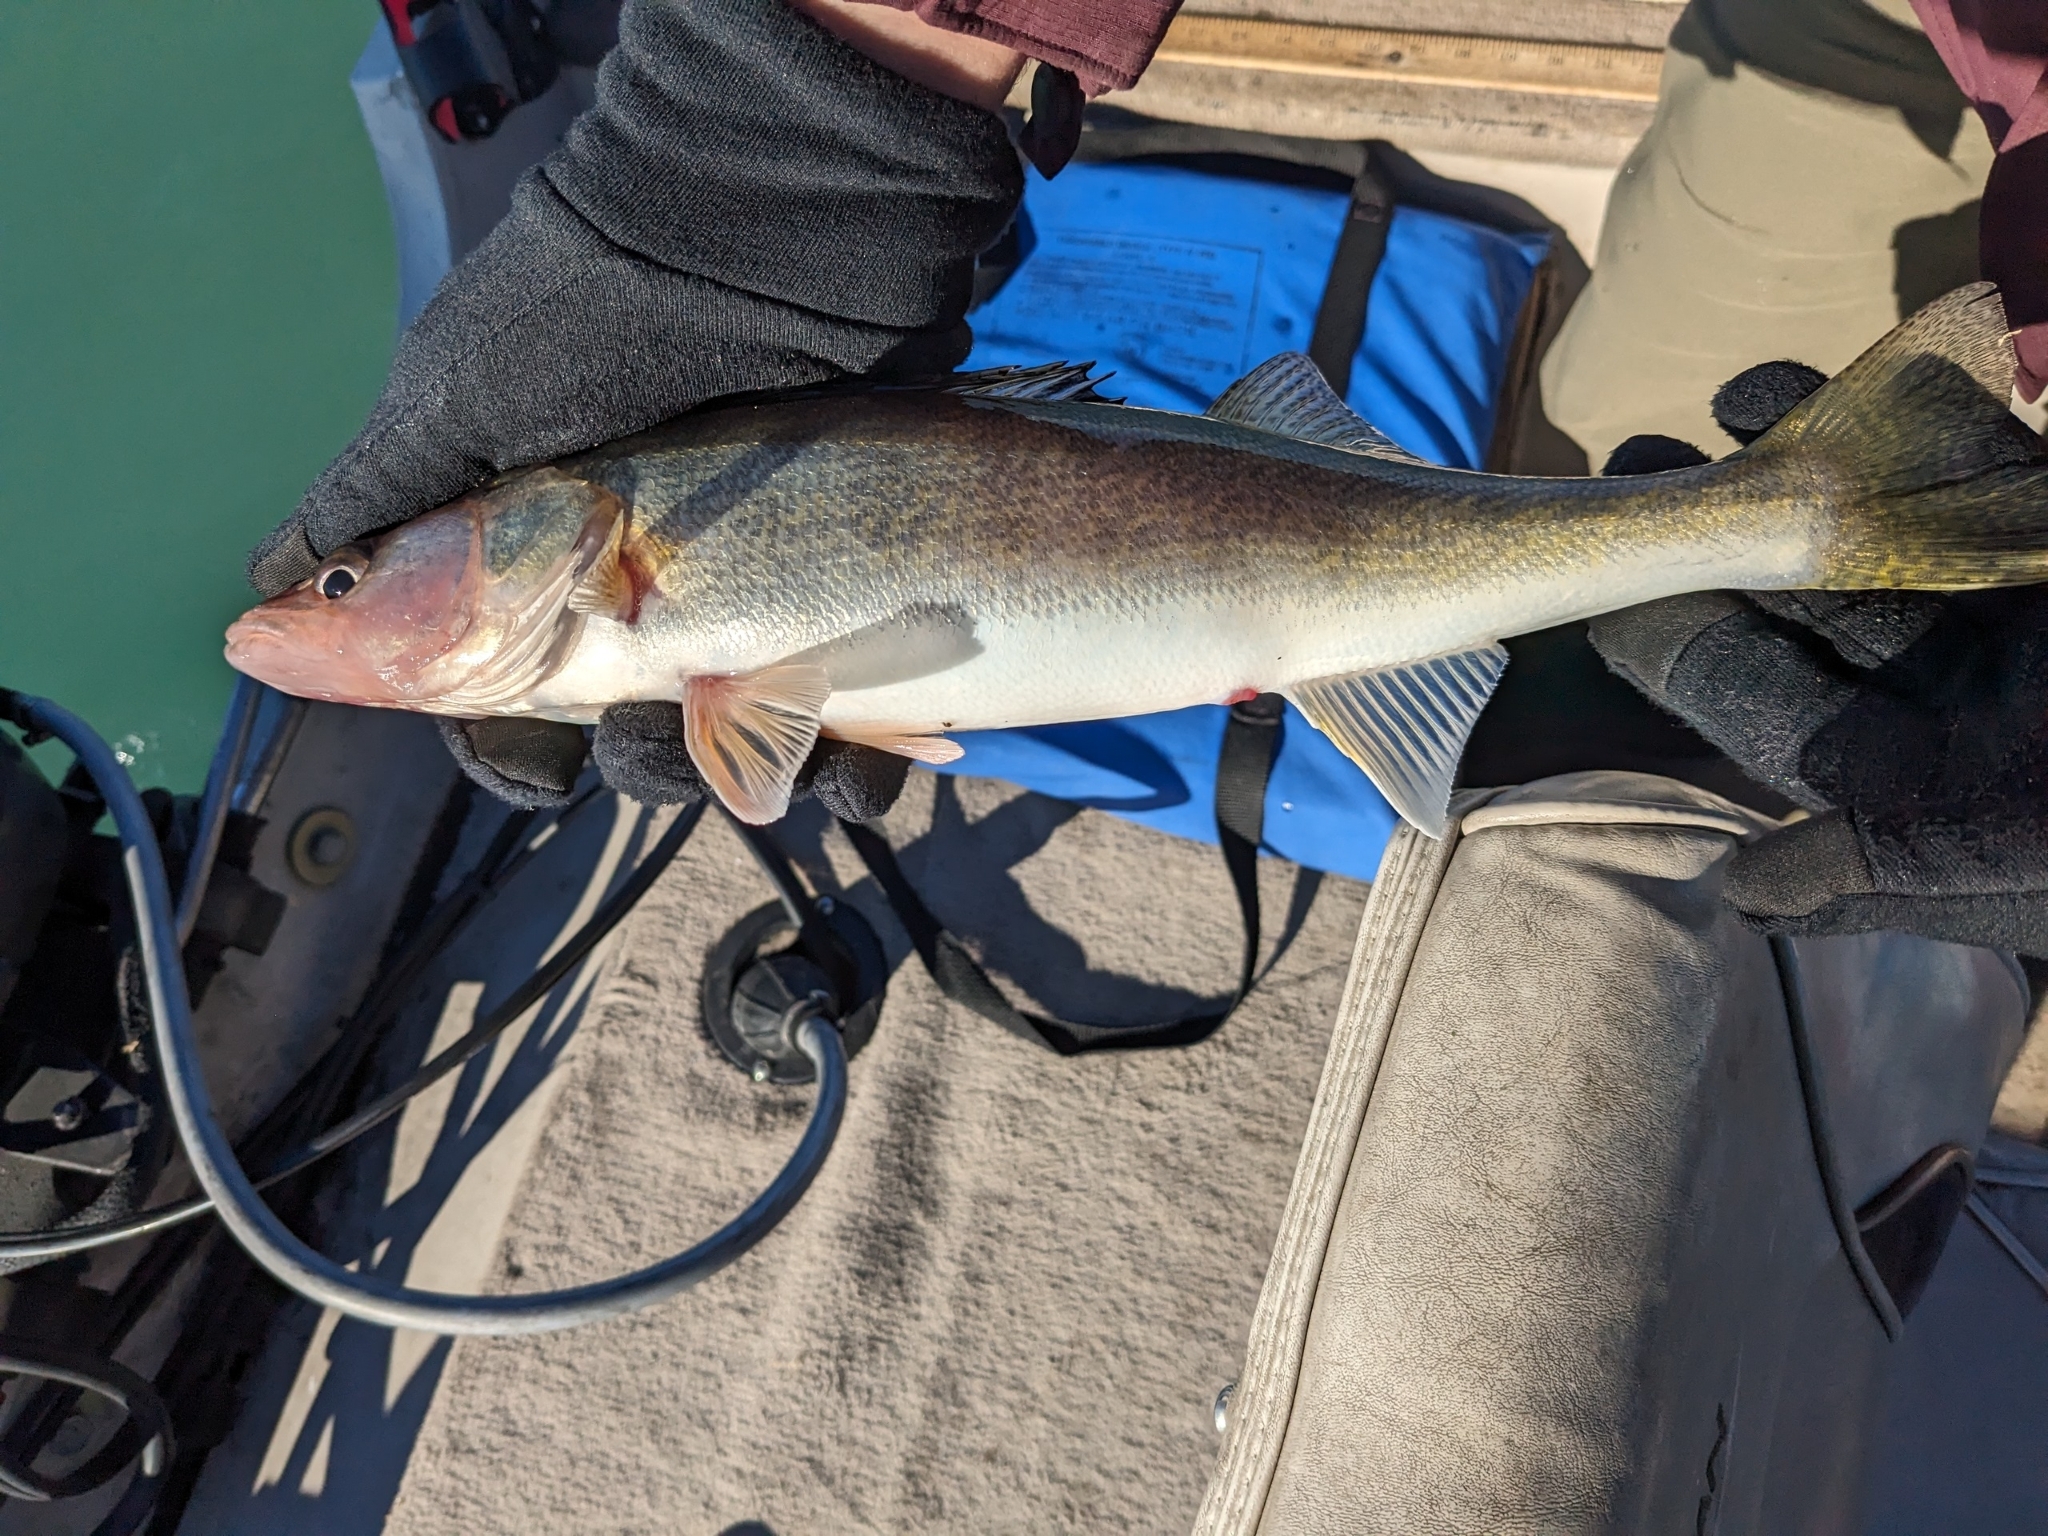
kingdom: Animalia
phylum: Chordata
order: Perciformes
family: Percidae
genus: Sander
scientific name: Sander vitreus
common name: Walleye
